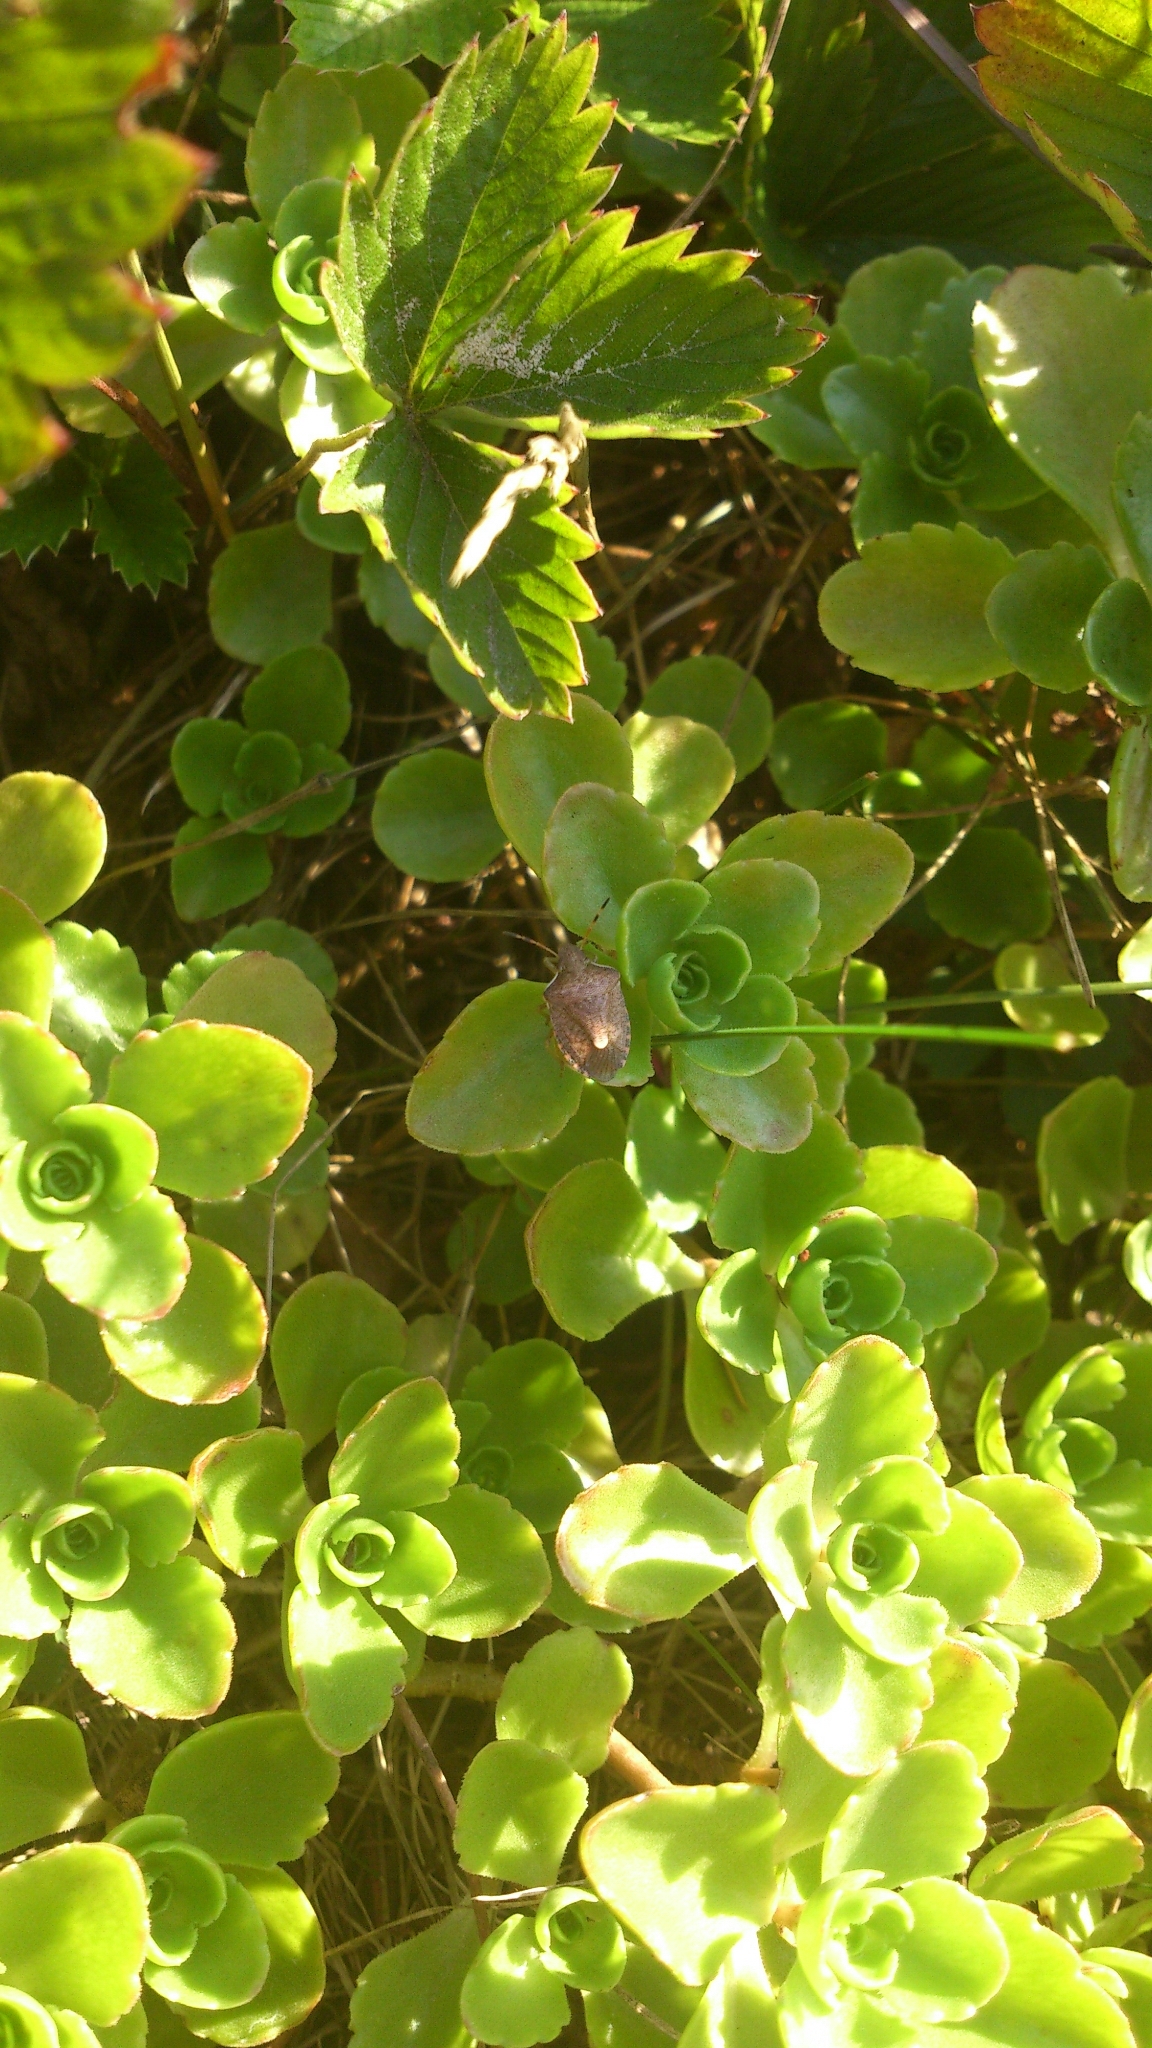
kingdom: Animalia
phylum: Arthropoda
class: Insecta
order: Hemiptera
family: Pentatomidae
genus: Holcostethus
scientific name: Holcostethus strictus
